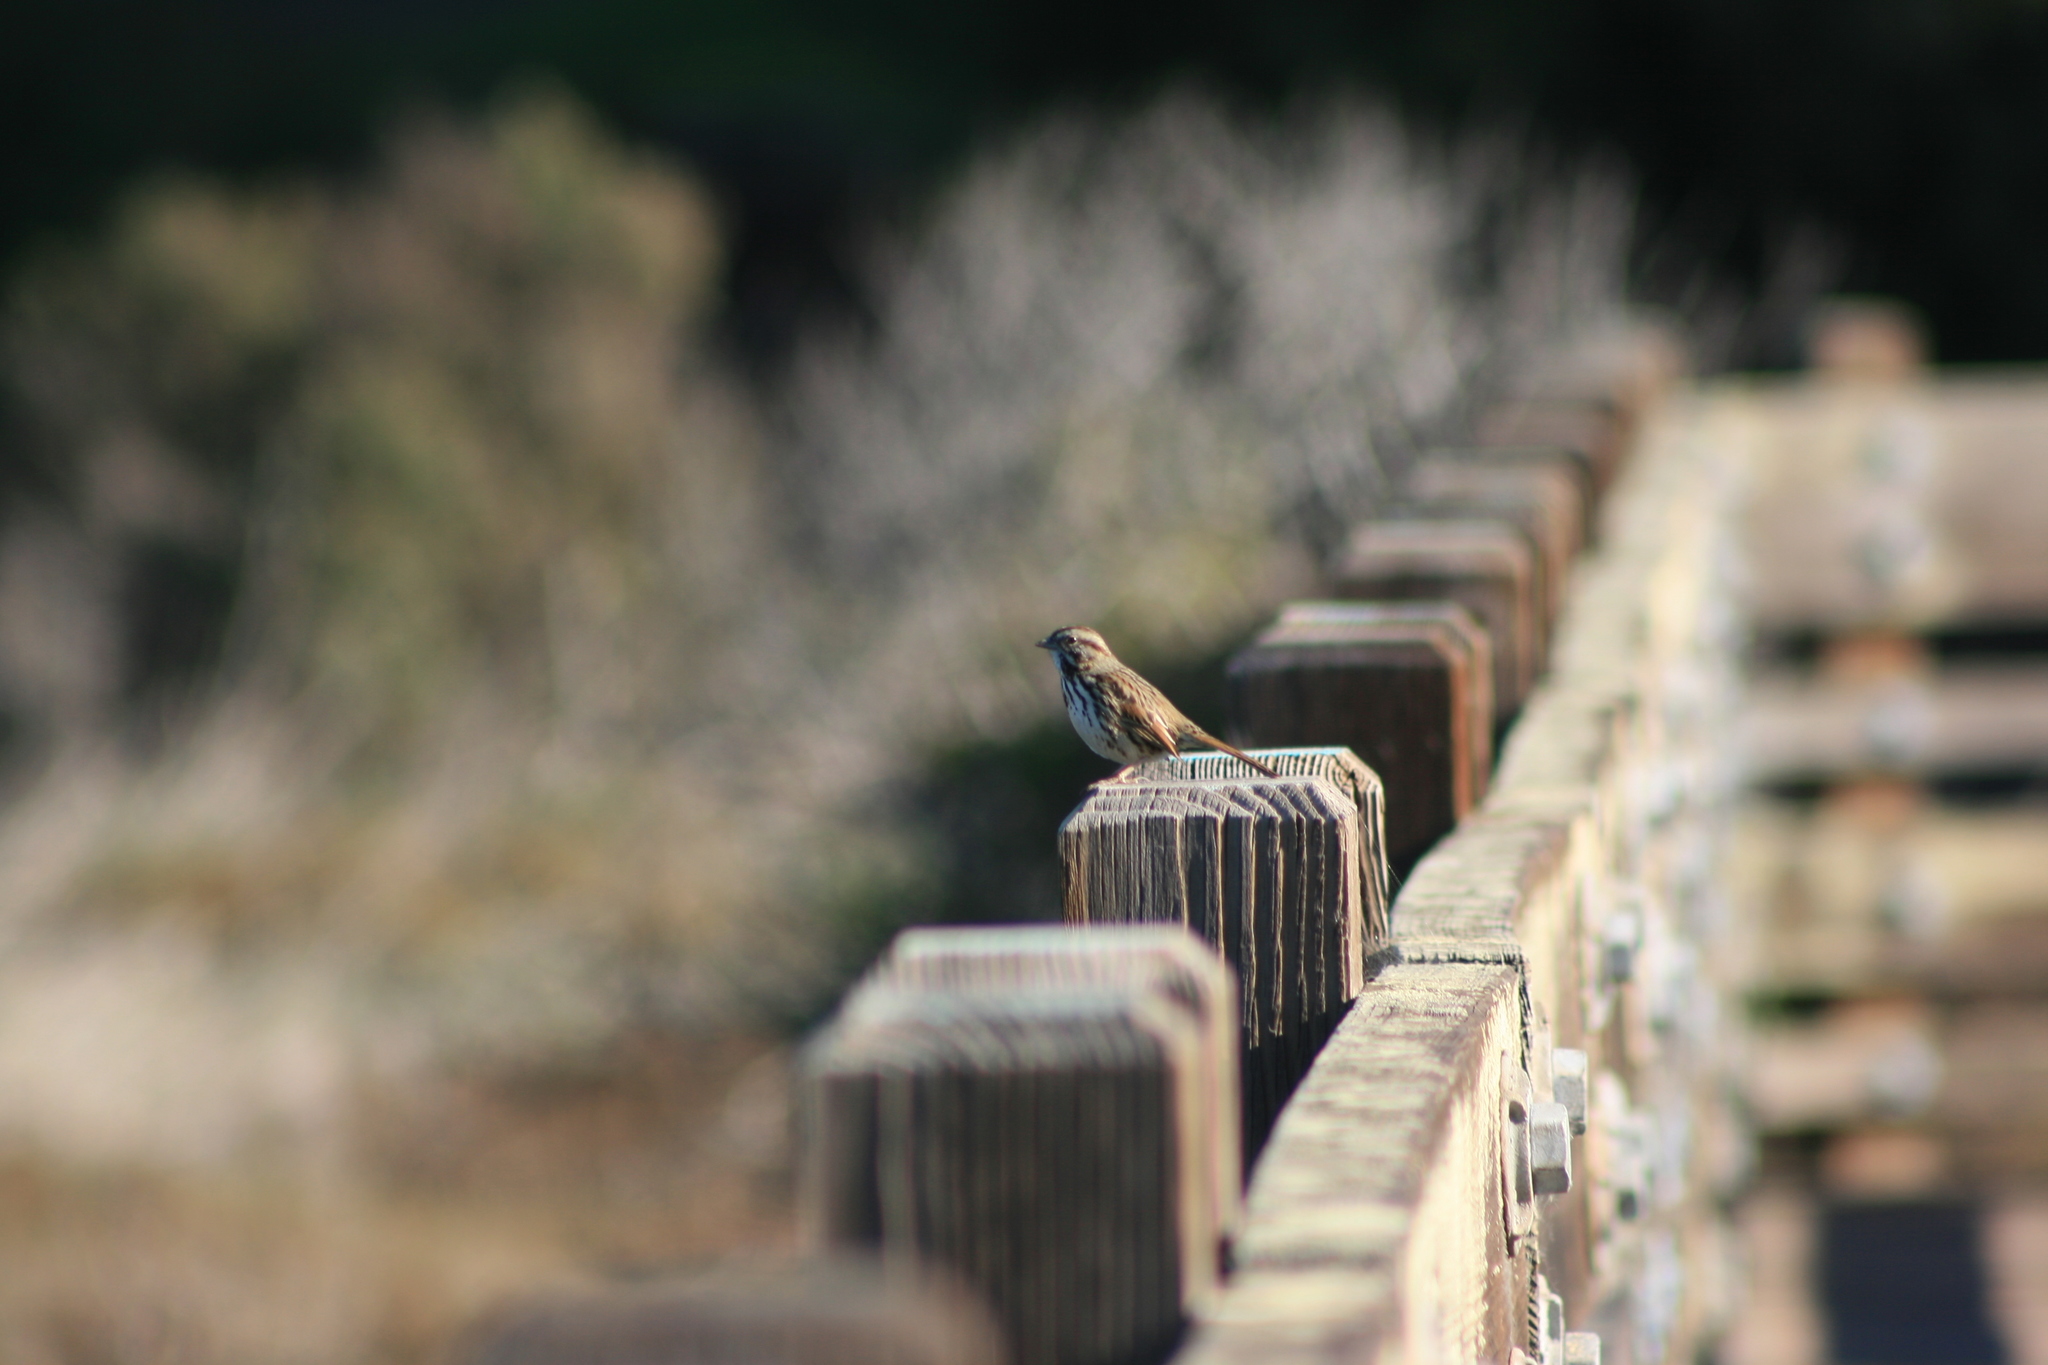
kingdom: Animalia
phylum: Chordata
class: Aves
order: Passeriformes
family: Passerellidae
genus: Melospiza
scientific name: Melospiza melodia
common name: Song sparrow
